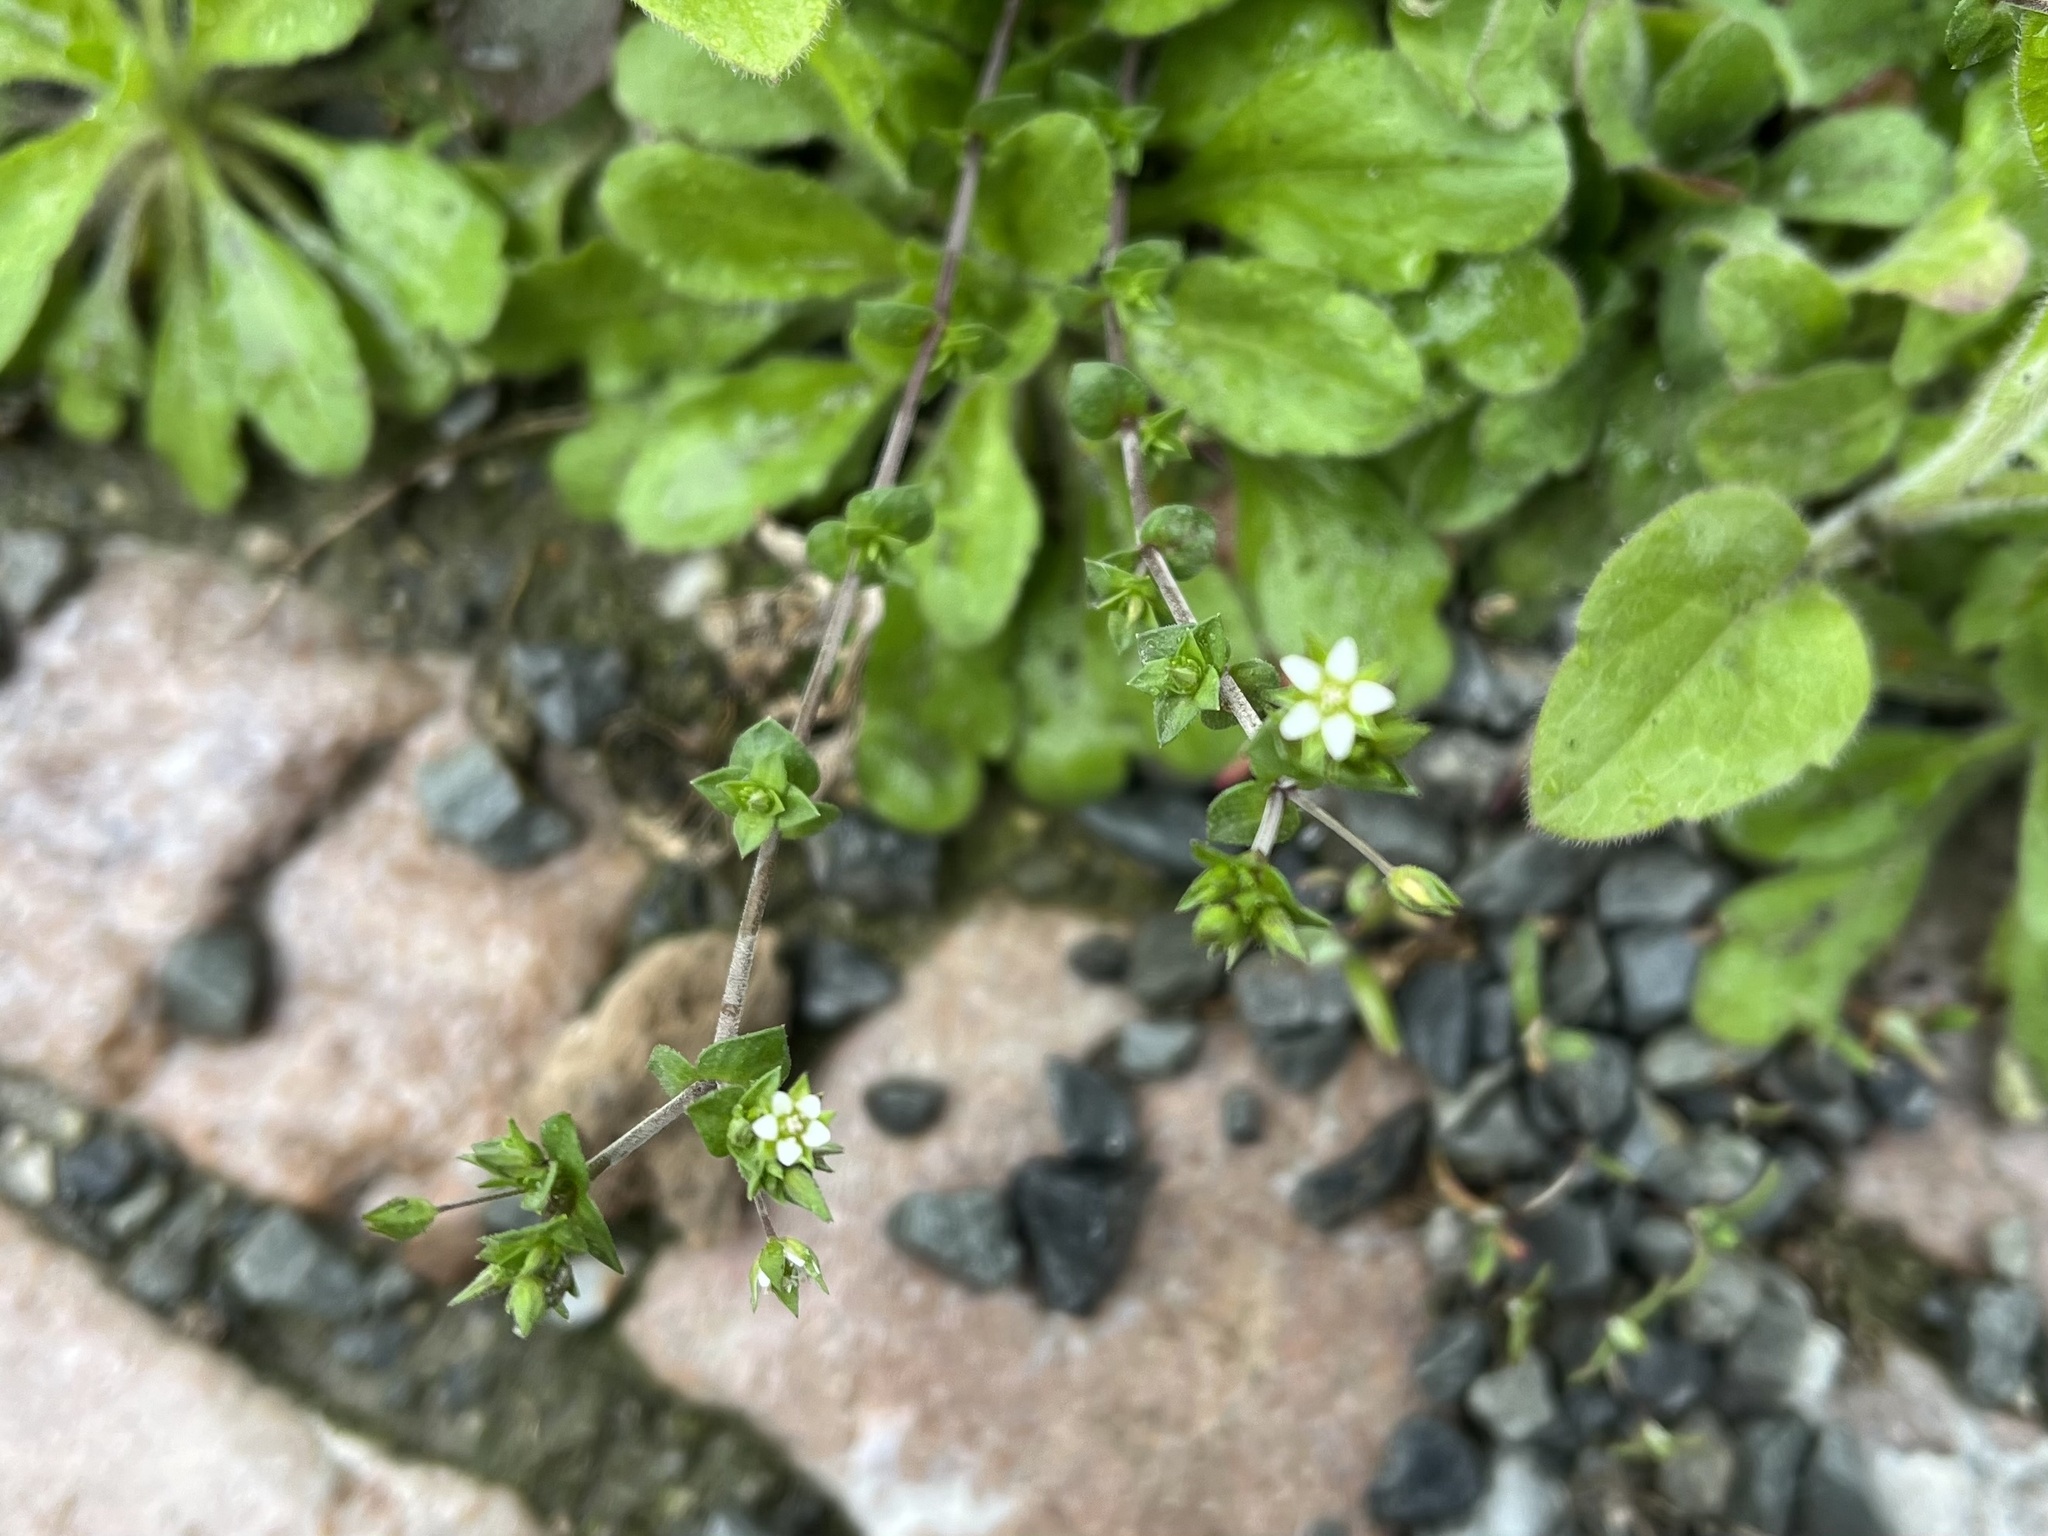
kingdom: Plantae
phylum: Tracheophyta
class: Magnoliopsida
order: Caryophyllales
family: Caryophyllaceae
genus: Arenaria
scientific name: Arenaria serpyllifolia
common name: Thyme-leaved sandwort
